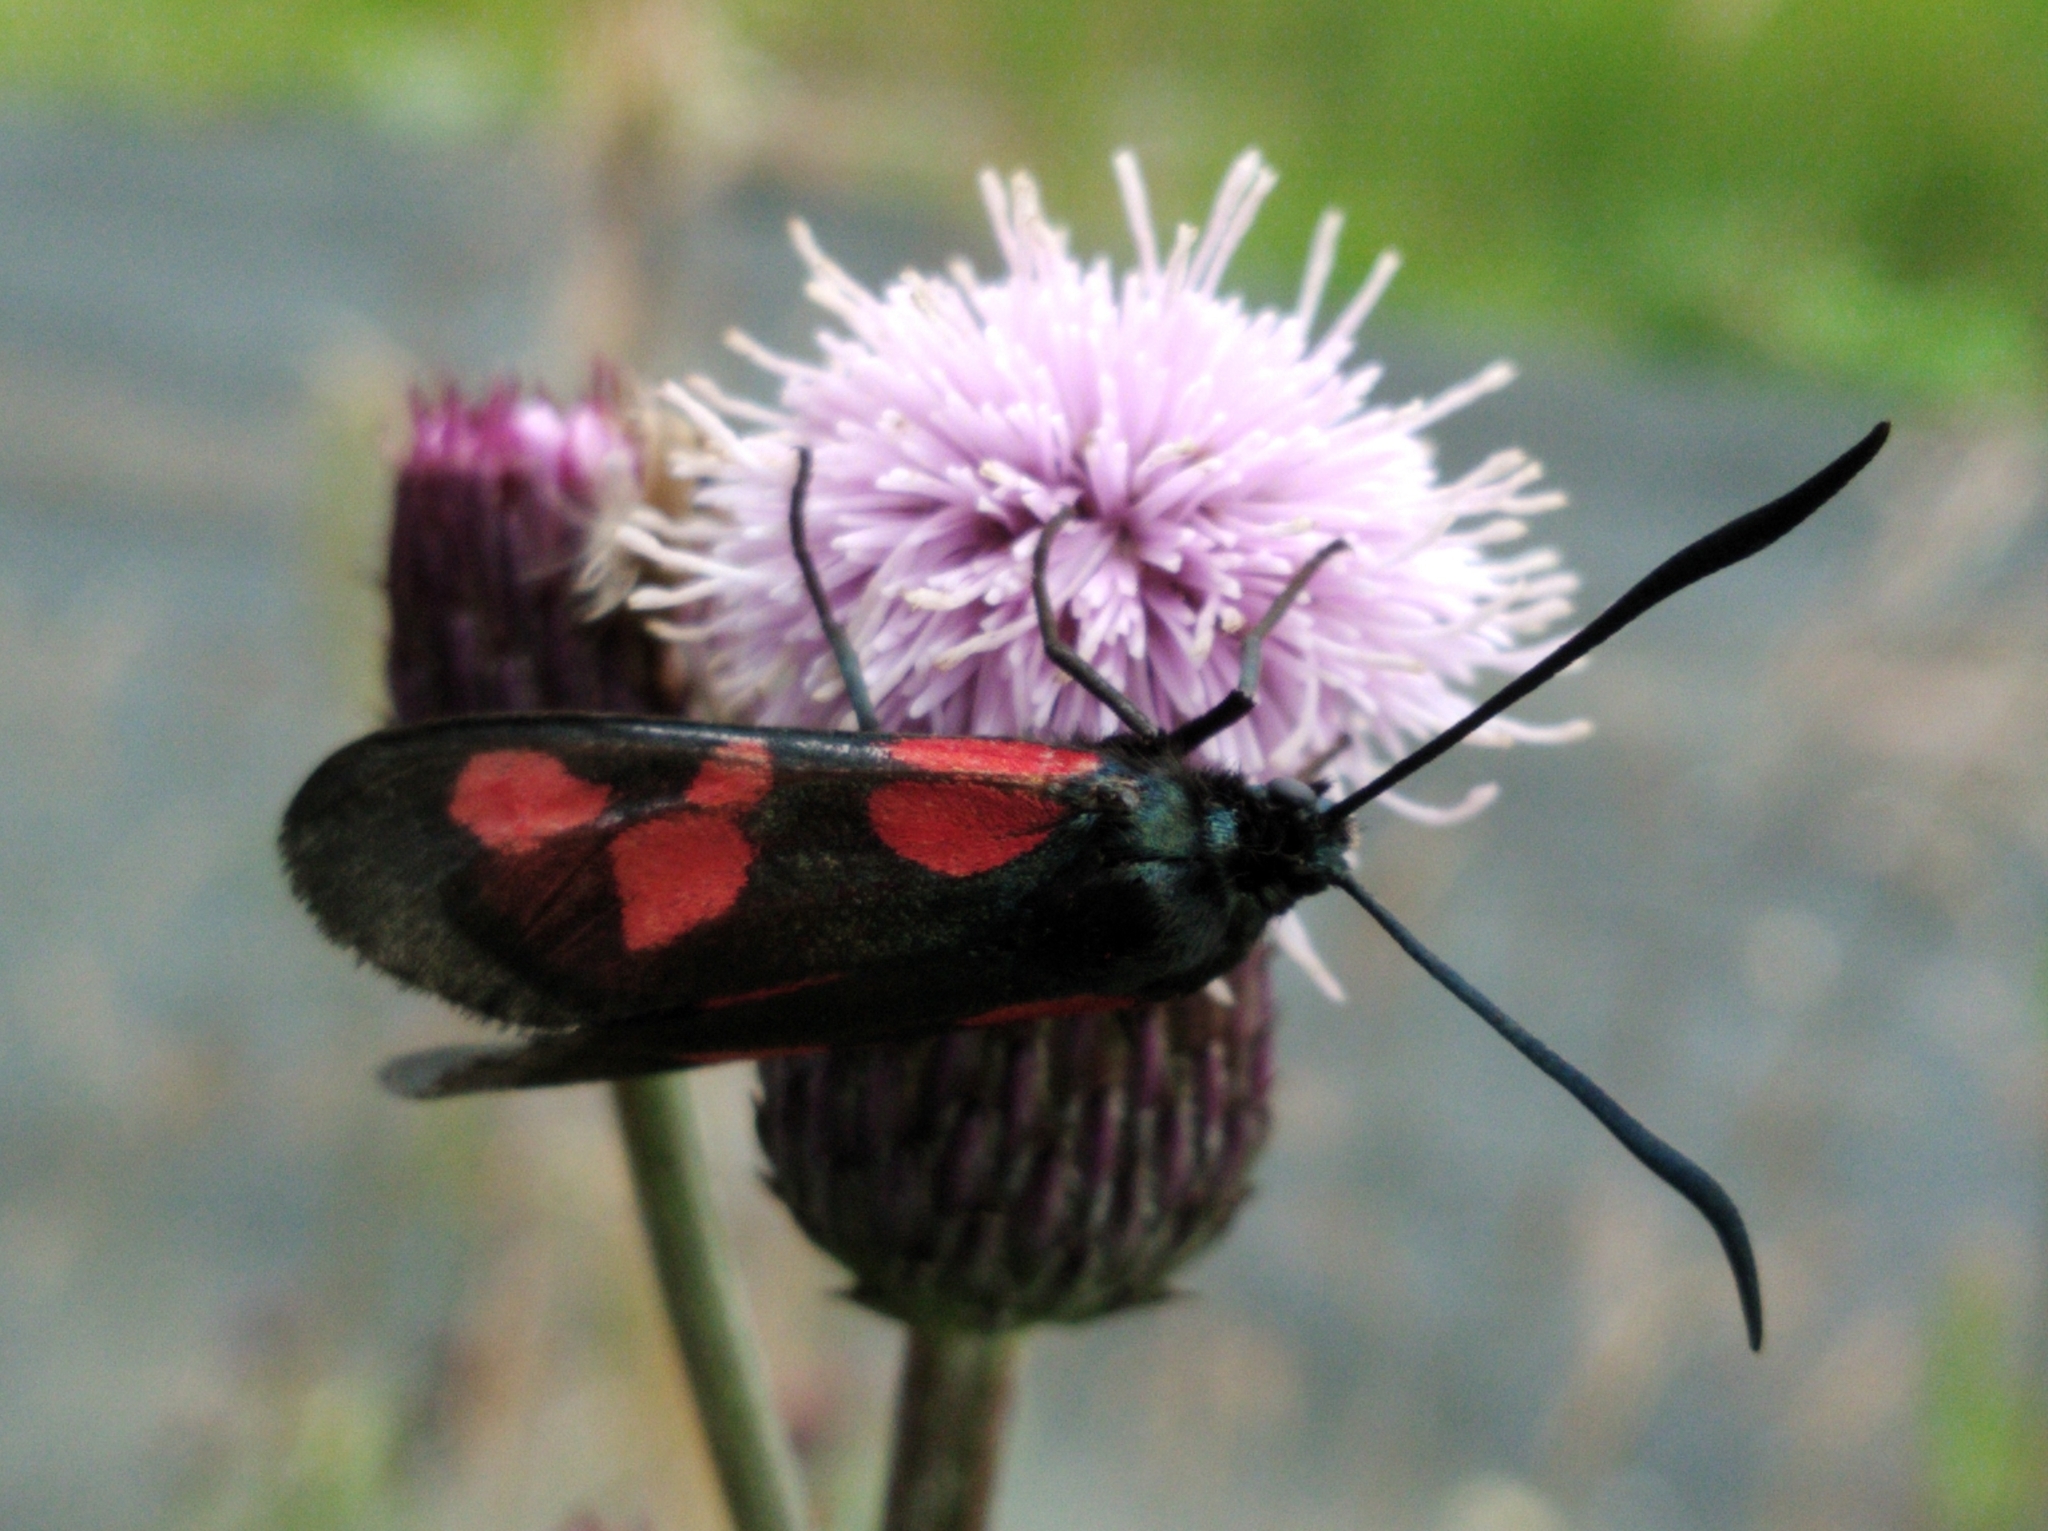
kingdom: Animalia
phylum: Arthropoda
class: Insecta
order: Lepidoptera
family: Zygaenidae
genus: Zygaena
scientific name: Zygaena lonicerae
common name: Narrow-bordered five-spot burnet
